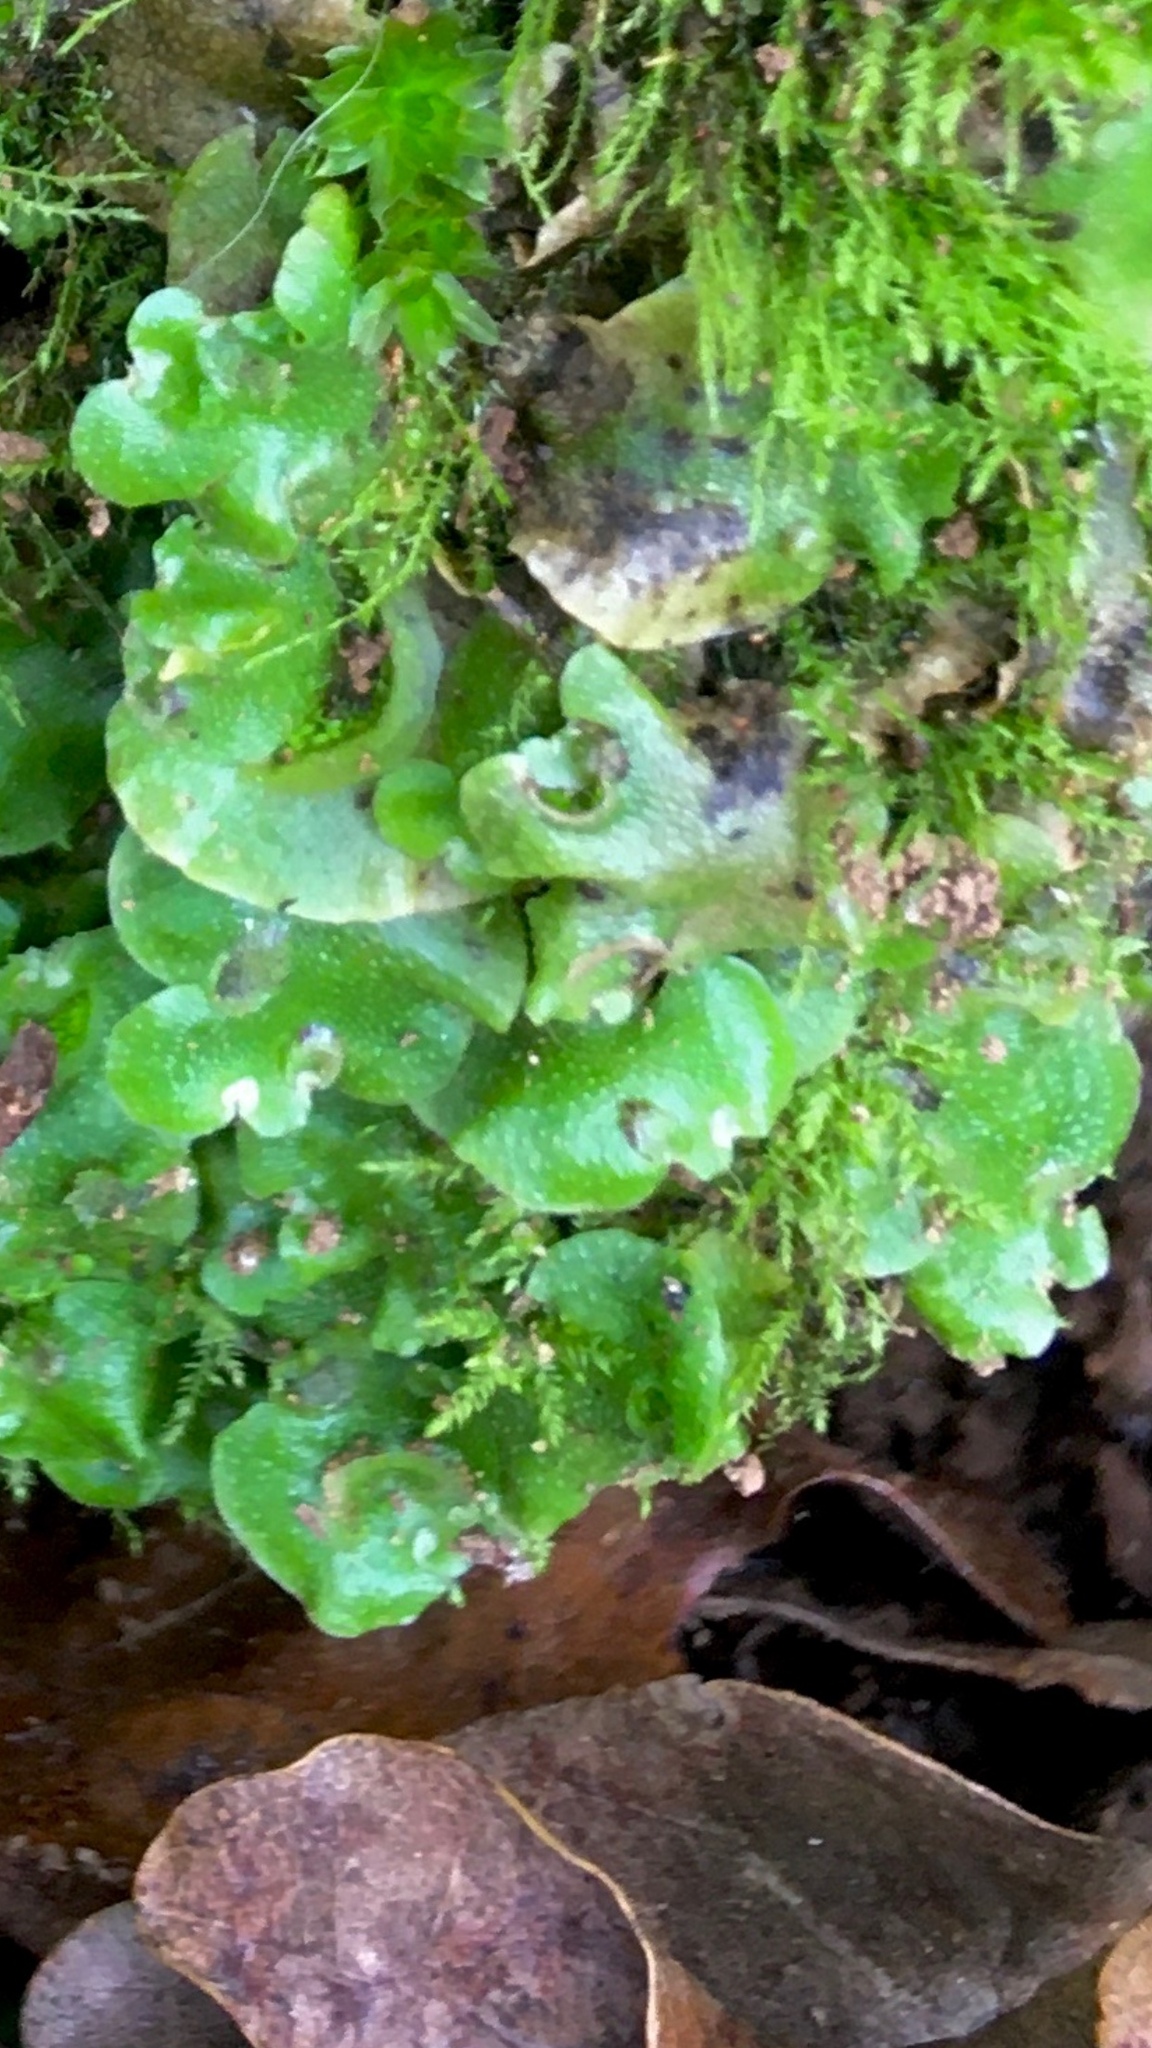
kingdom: Plantae
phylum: Marchantiophyta
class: Marchantiopsida
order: Lunulariales
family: Lunulariaceae
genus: Lunularia
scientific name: Lunularia cruciata
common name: Crescent-cup liverwort
